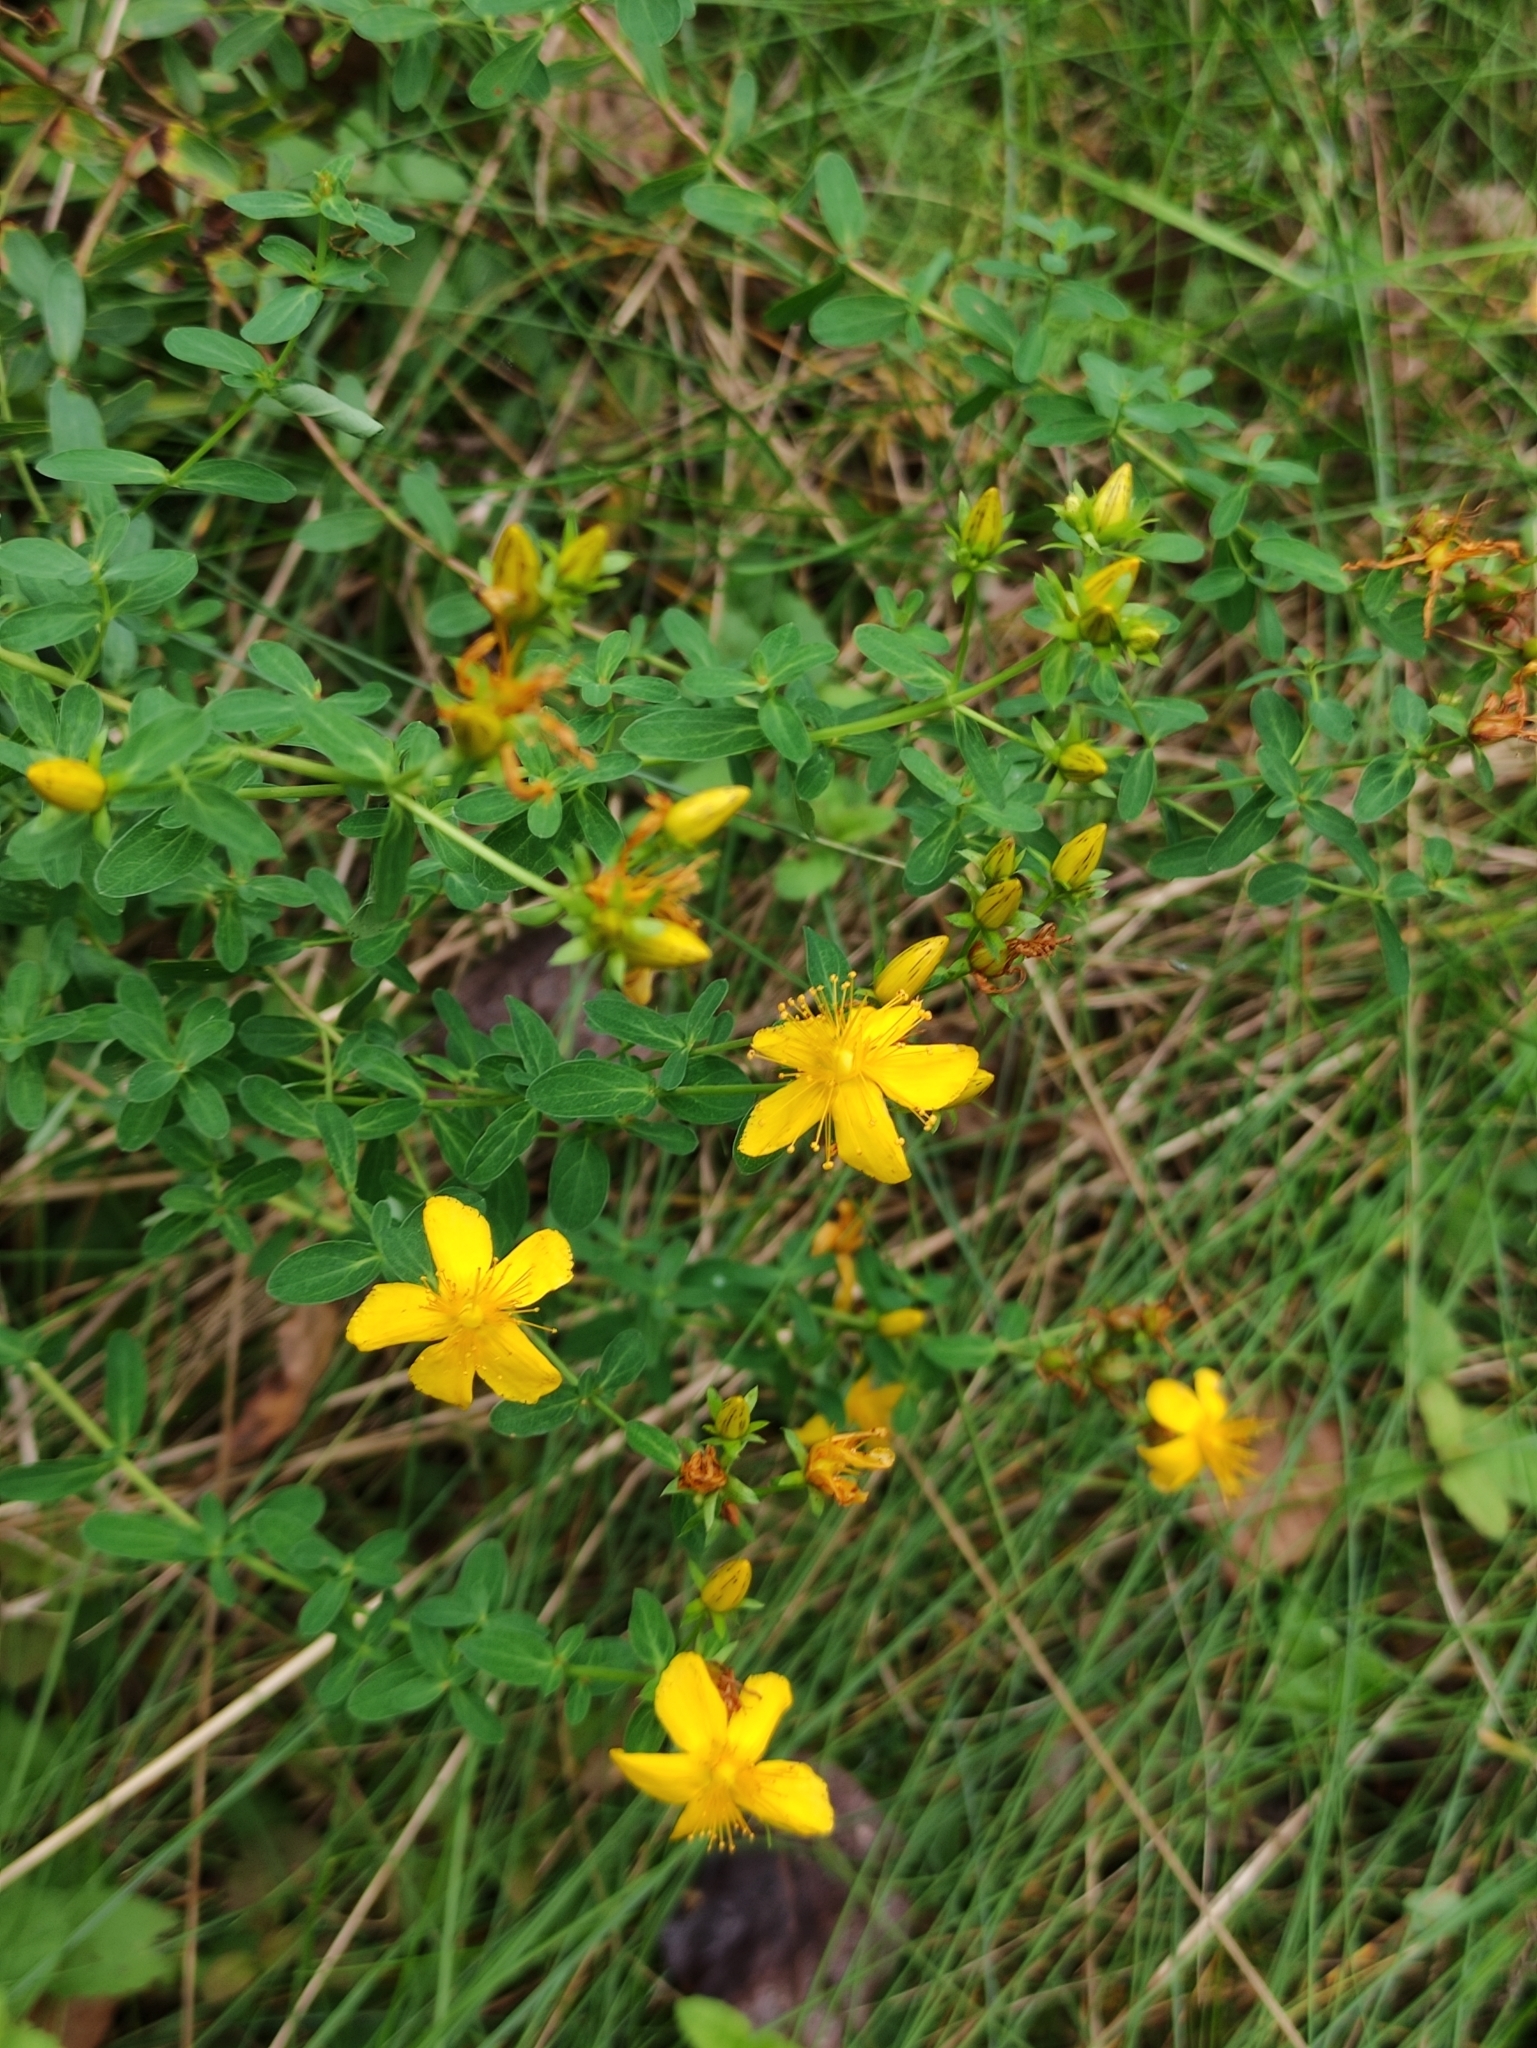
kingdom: Plantae
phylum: Tracheophyta
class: Magnoliopsida
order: Malpighiales
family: Hypericaceae
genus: Hypericum
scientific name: Hypericum perforatum
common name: Common st. johnswort
